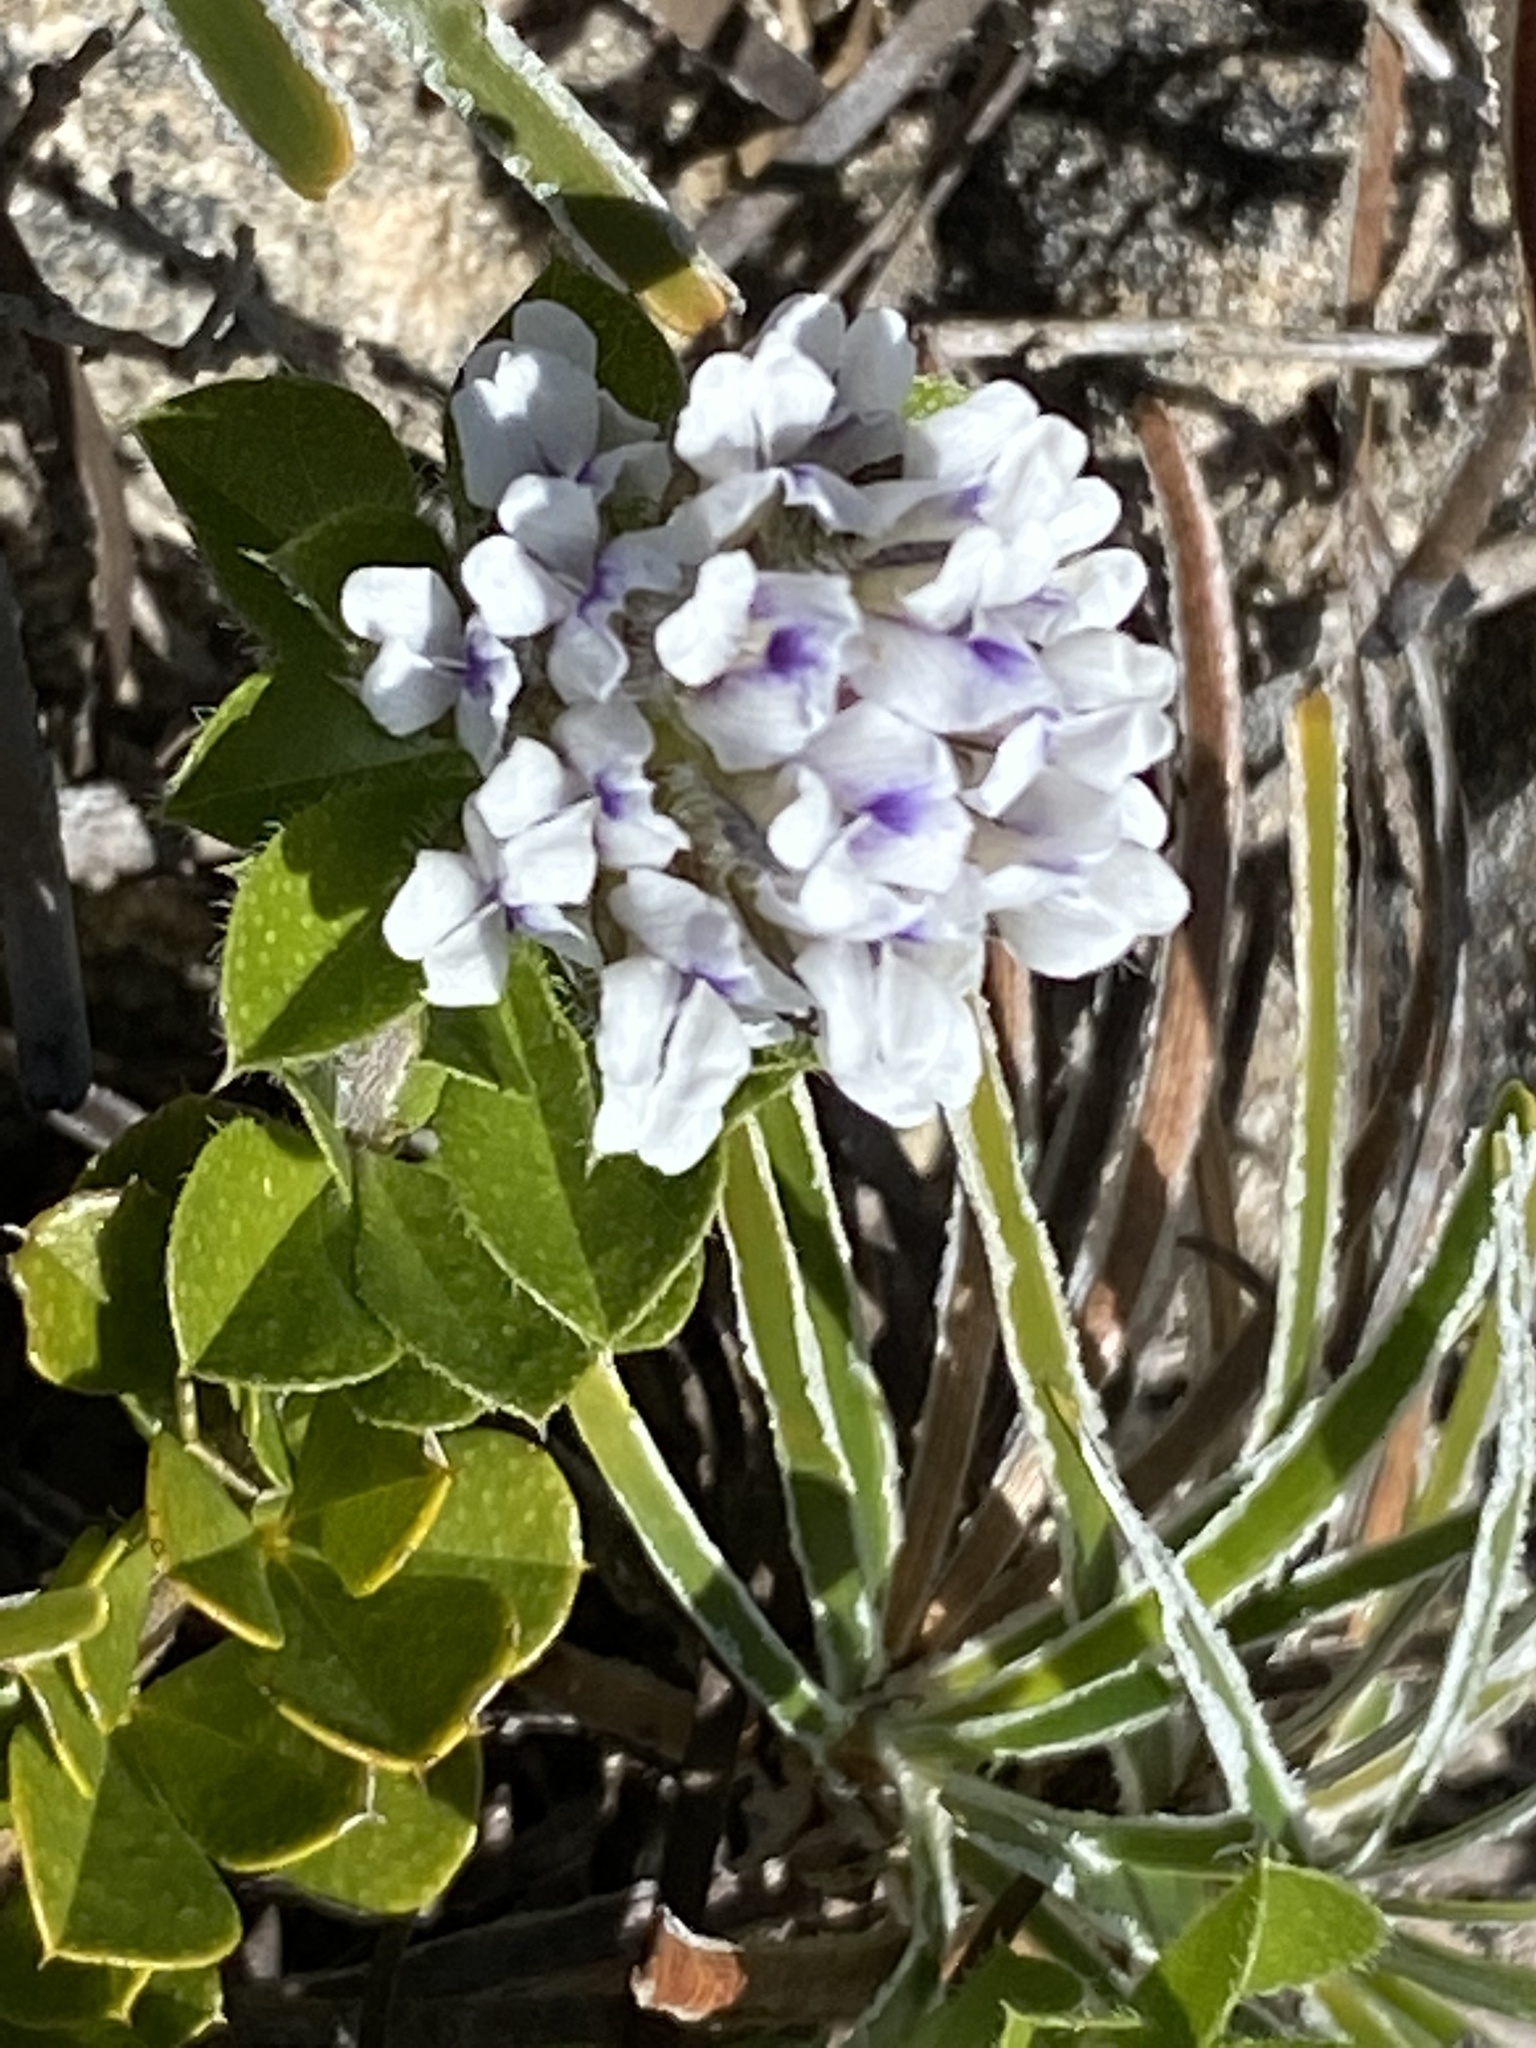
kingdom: Plantae
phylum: Tracheophyta
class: Magnoliopsida
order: Fabales
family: Fabaceae
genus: Psoralea
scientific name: Psoralea sabulosa
